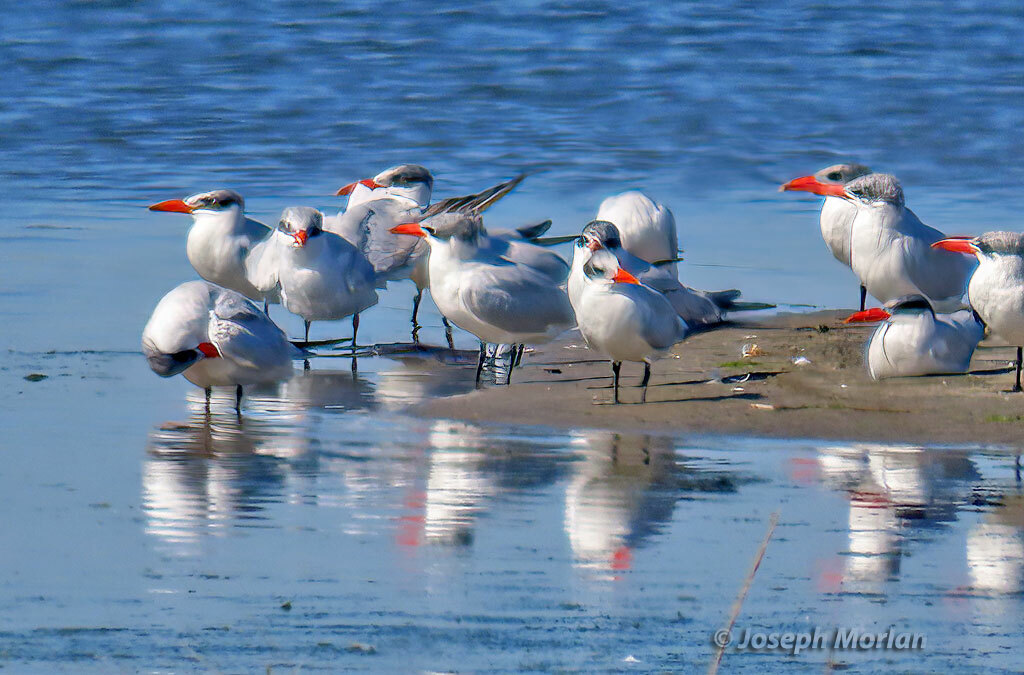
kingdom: Animalia
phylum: Chordata
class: Aves
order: Charadriiformes
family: Laridae
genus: Hydroprogne
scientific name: Hydroprogne caspia
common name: Caspian tern
